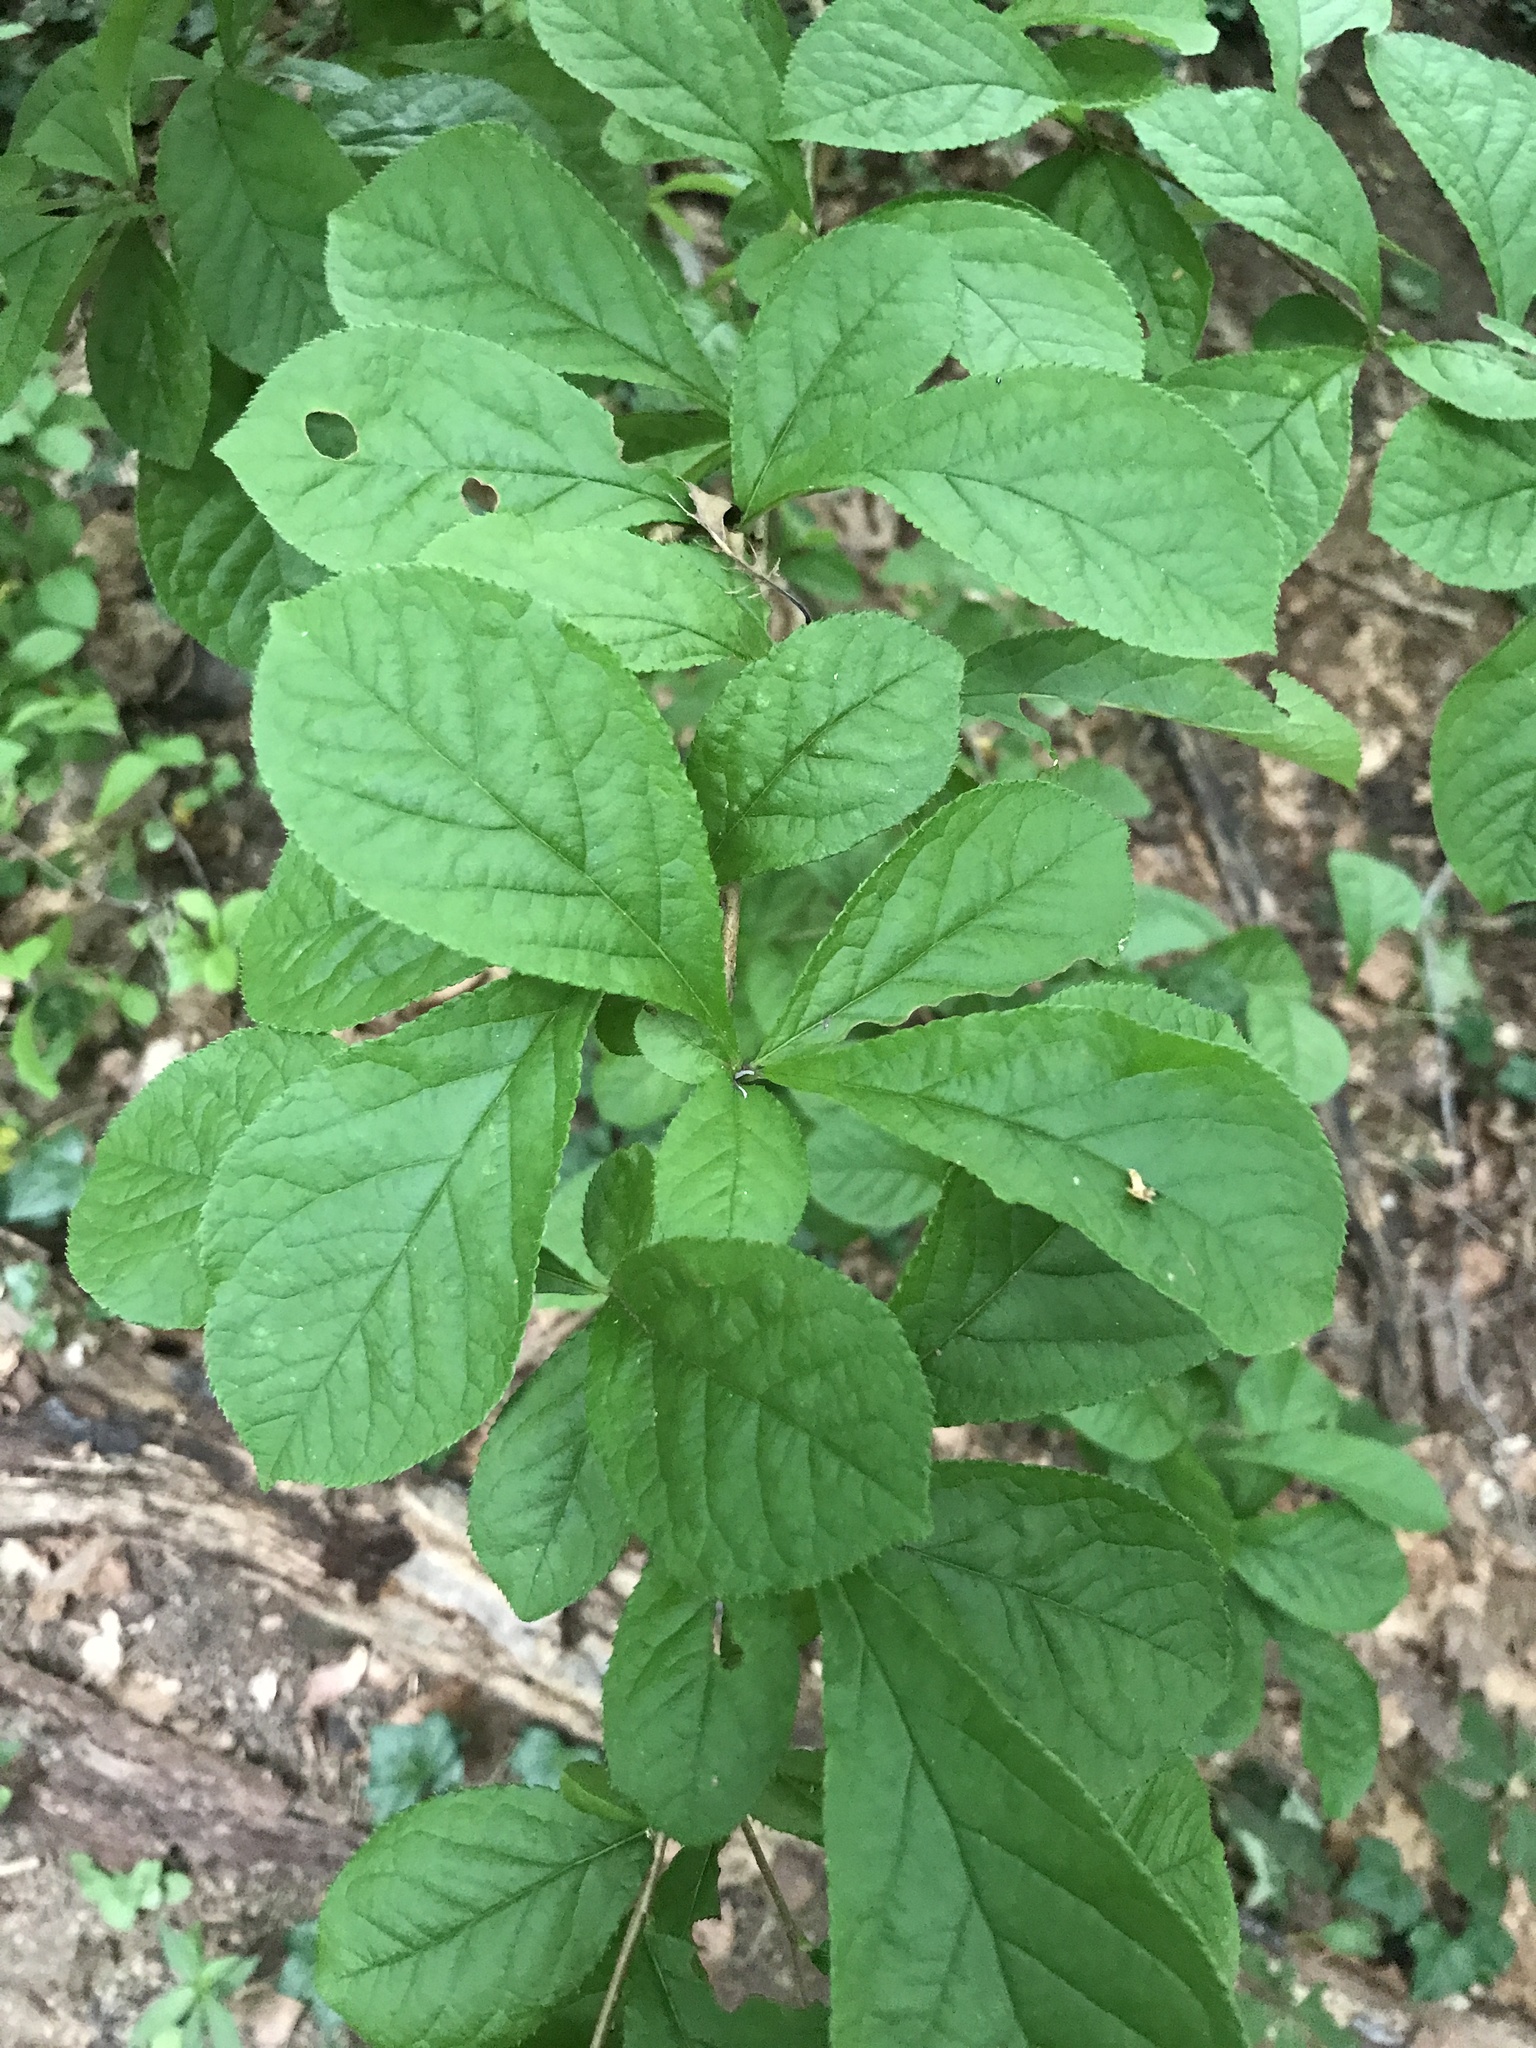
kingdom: Plantae
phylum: Tracheophyta
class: Magnoliopsida
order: Rosales
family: Rosaceae
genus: Pourthiaea
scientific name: Pourthiaea villosa
